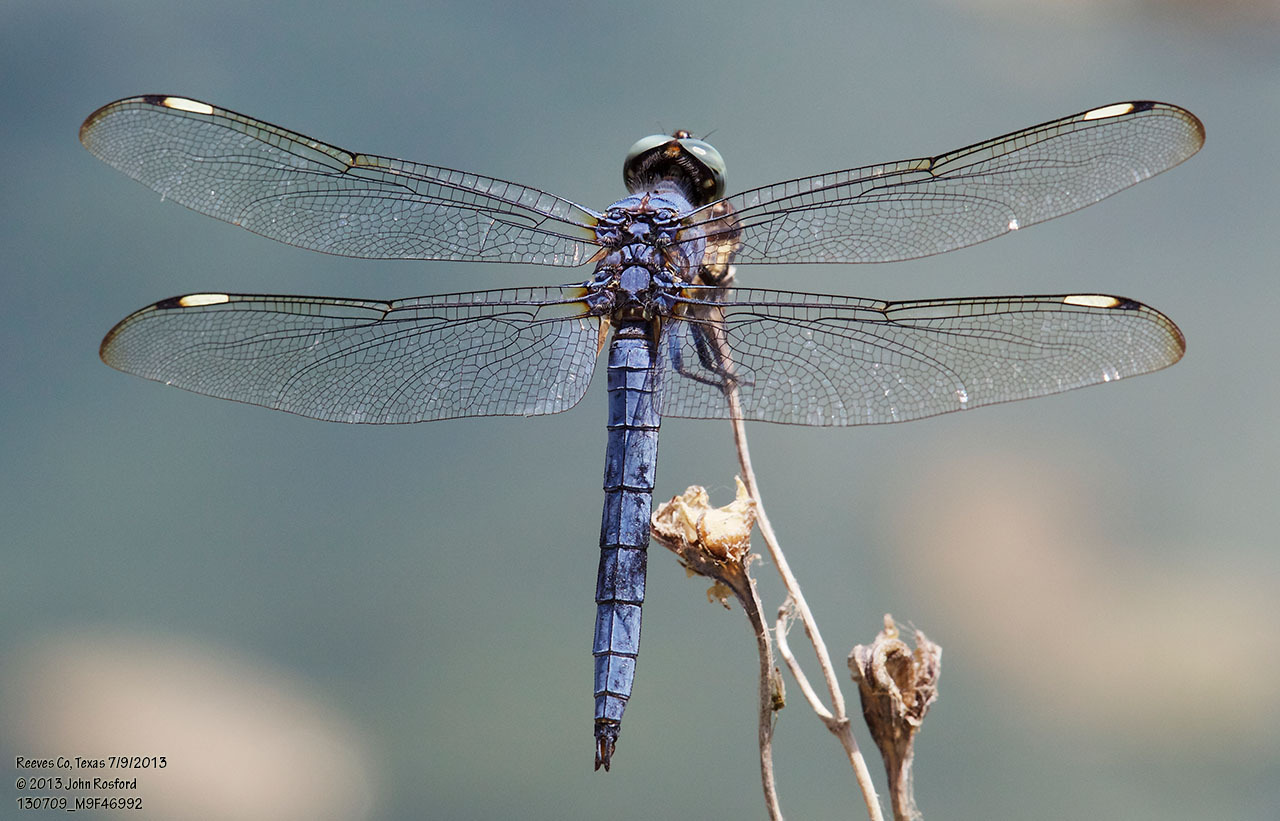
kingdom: Animalia
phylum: Arthropoda
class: Insecta
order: Odonata
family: Libellulidae
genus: Libellula
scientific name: Libellula comanche
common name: Comanche skimmer
